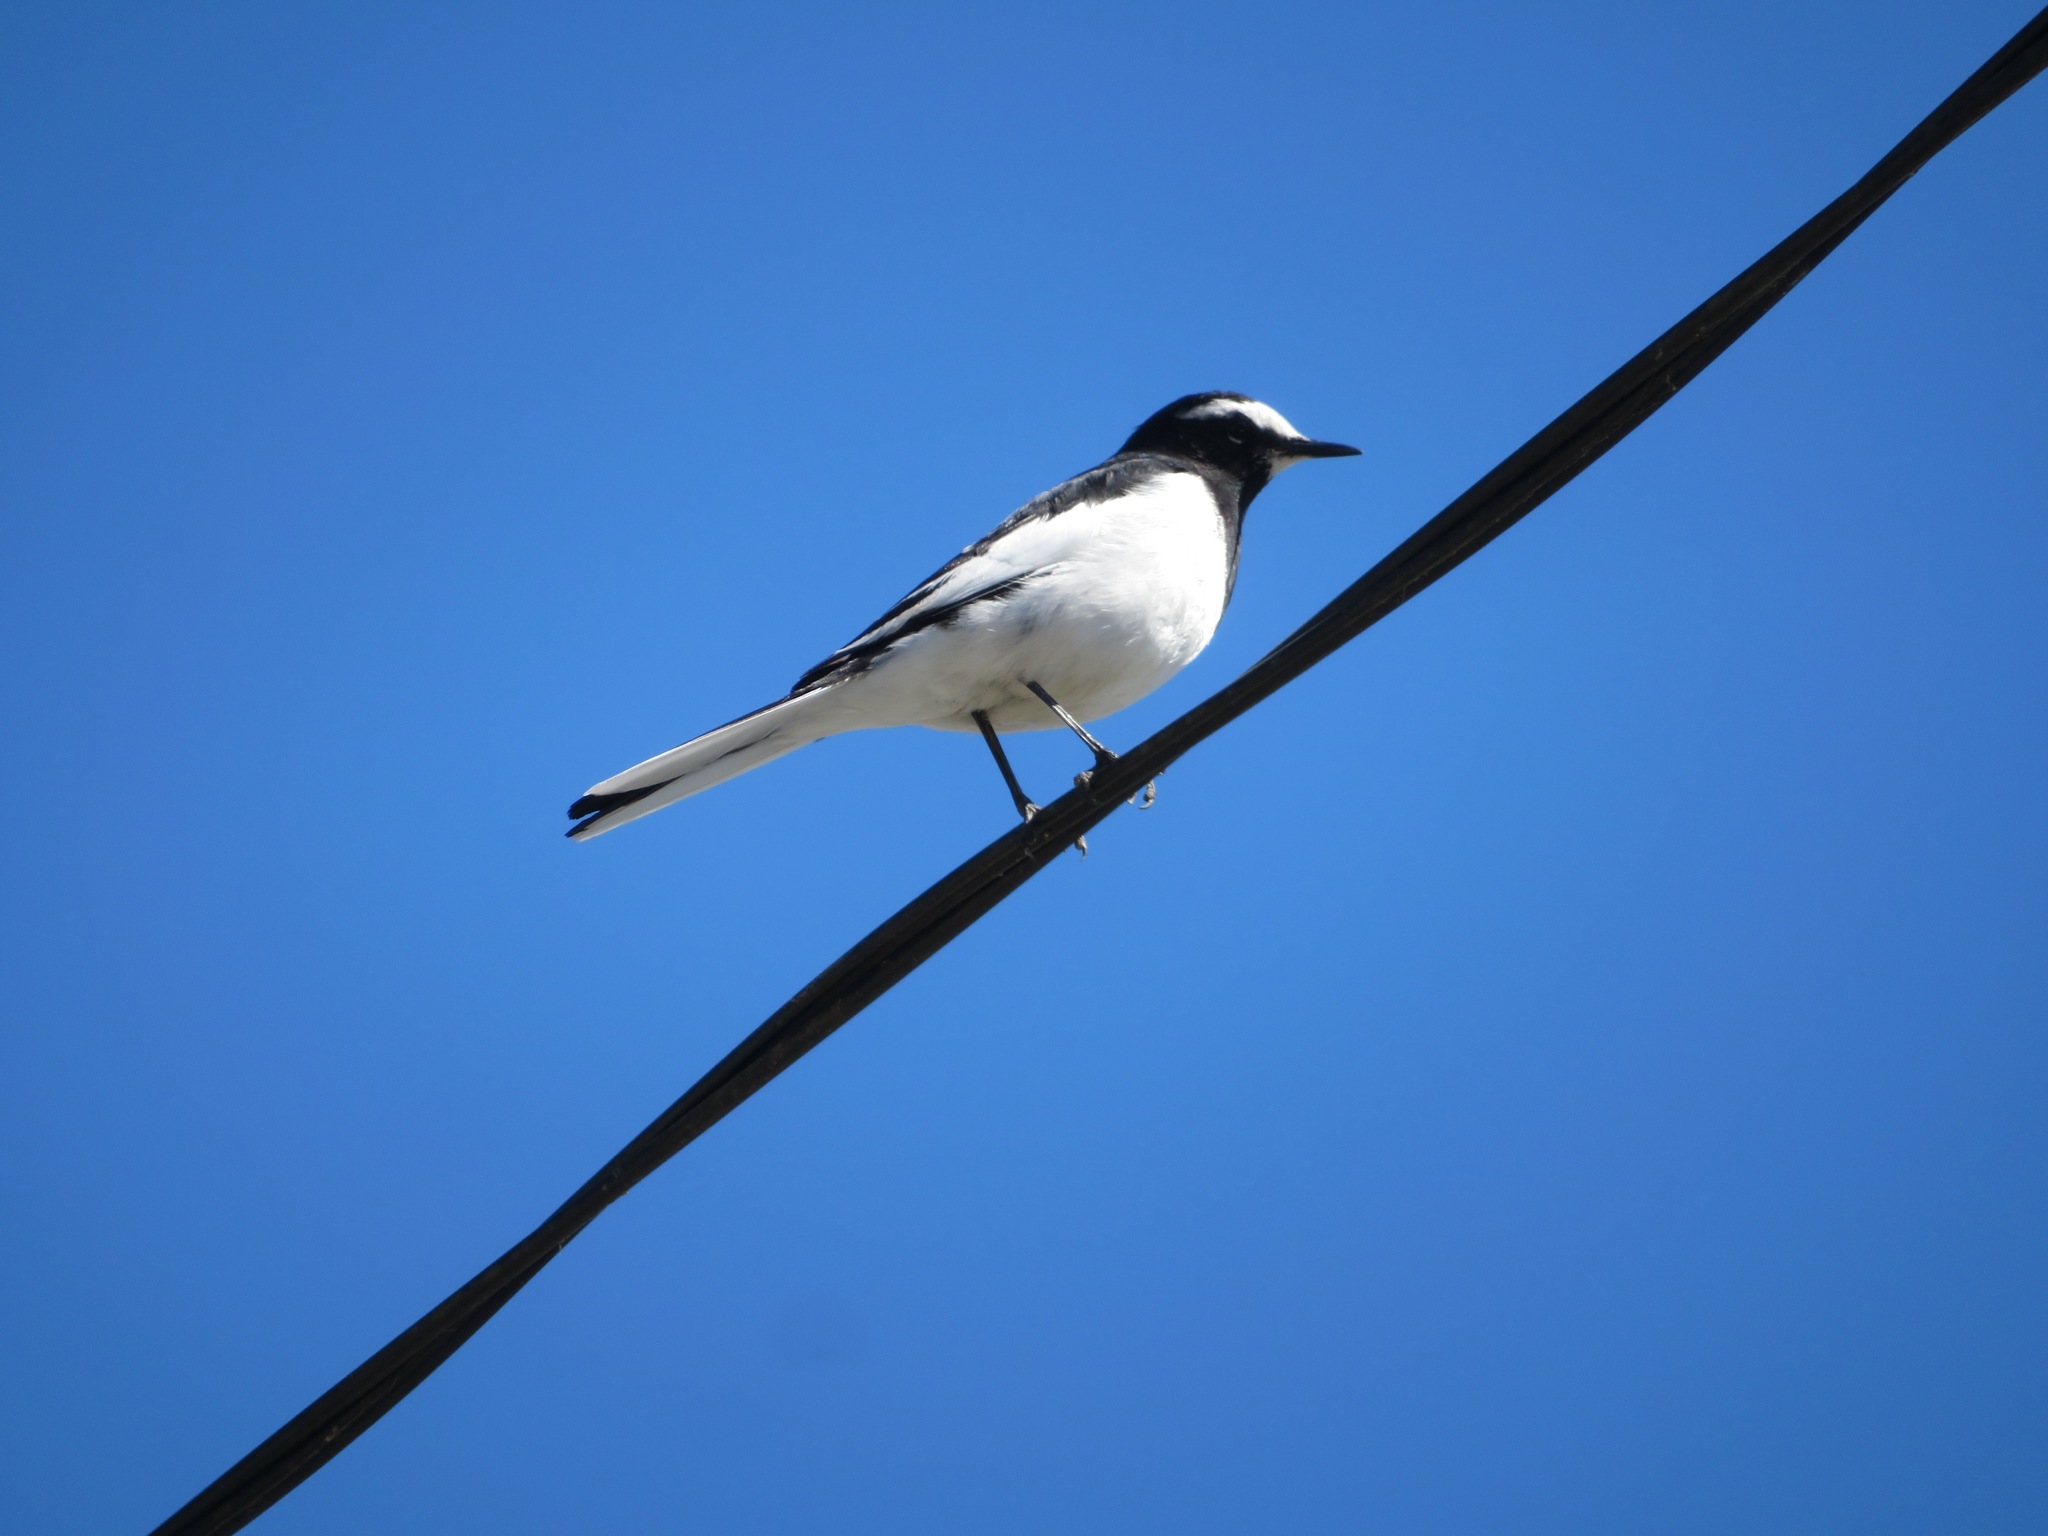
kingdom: Animalia
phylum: Chordata
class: Aves
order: Passeriformes
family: Motacillidae
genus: Motacilla
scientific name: Motacilla grandis
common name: Japanese wagtail
